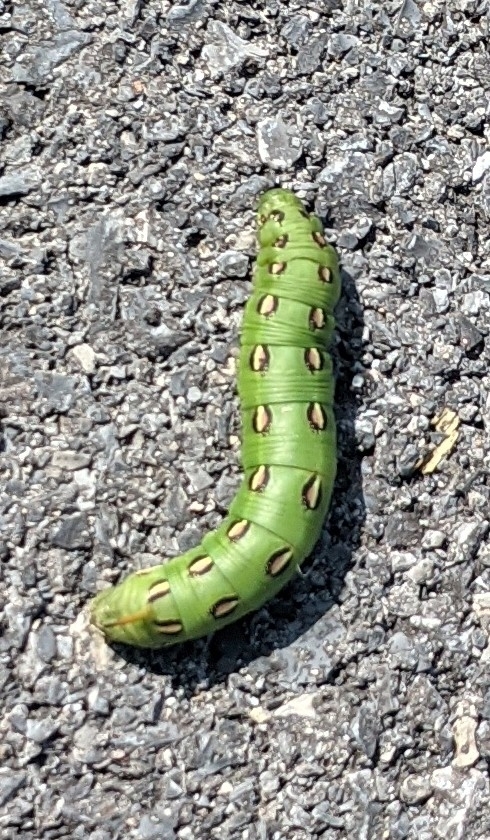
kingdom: Animalia
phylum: Arthropoda
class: Insecta
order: Lepidoptera
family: Sphingidae
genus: Hyles
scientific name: Hyles lineata
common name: White-lined sphinx
